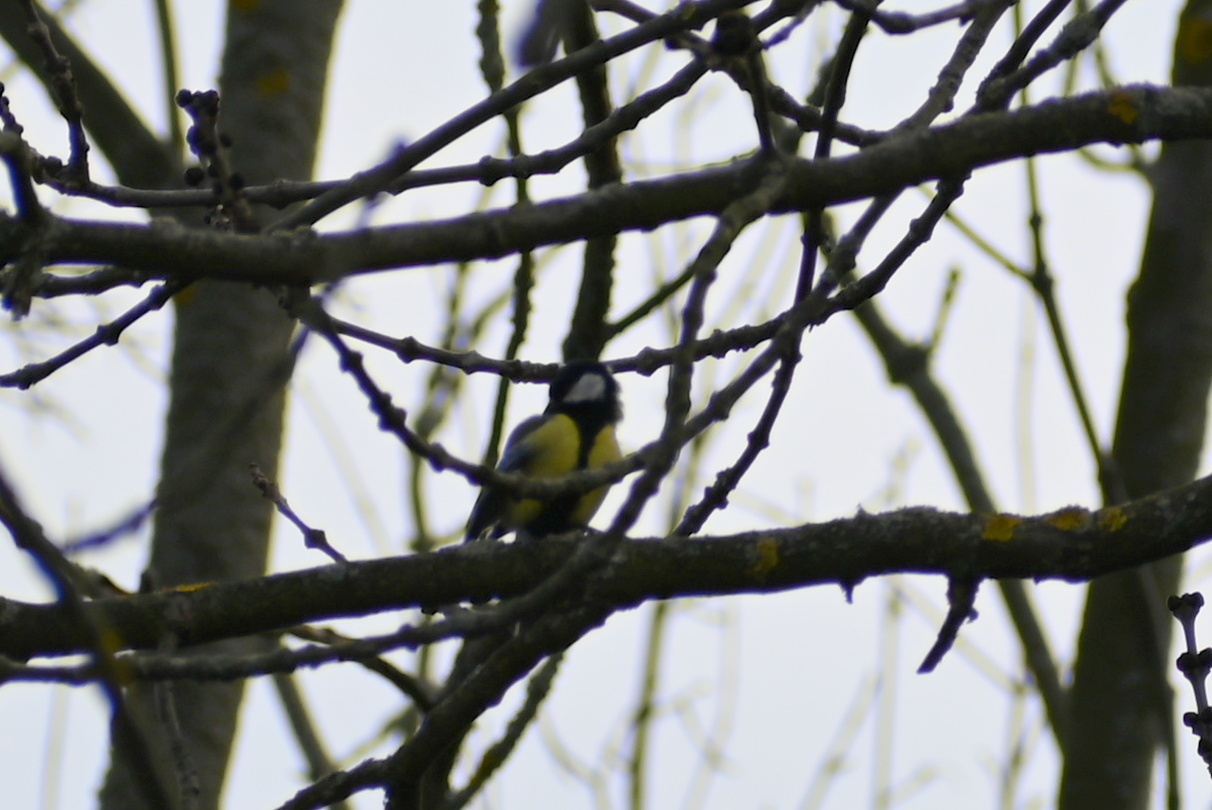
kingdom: Animalia
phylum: Chordata
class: Aves
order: Passeriformes
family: Paridae
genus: Parus
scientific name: Parus major
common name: Great tit
